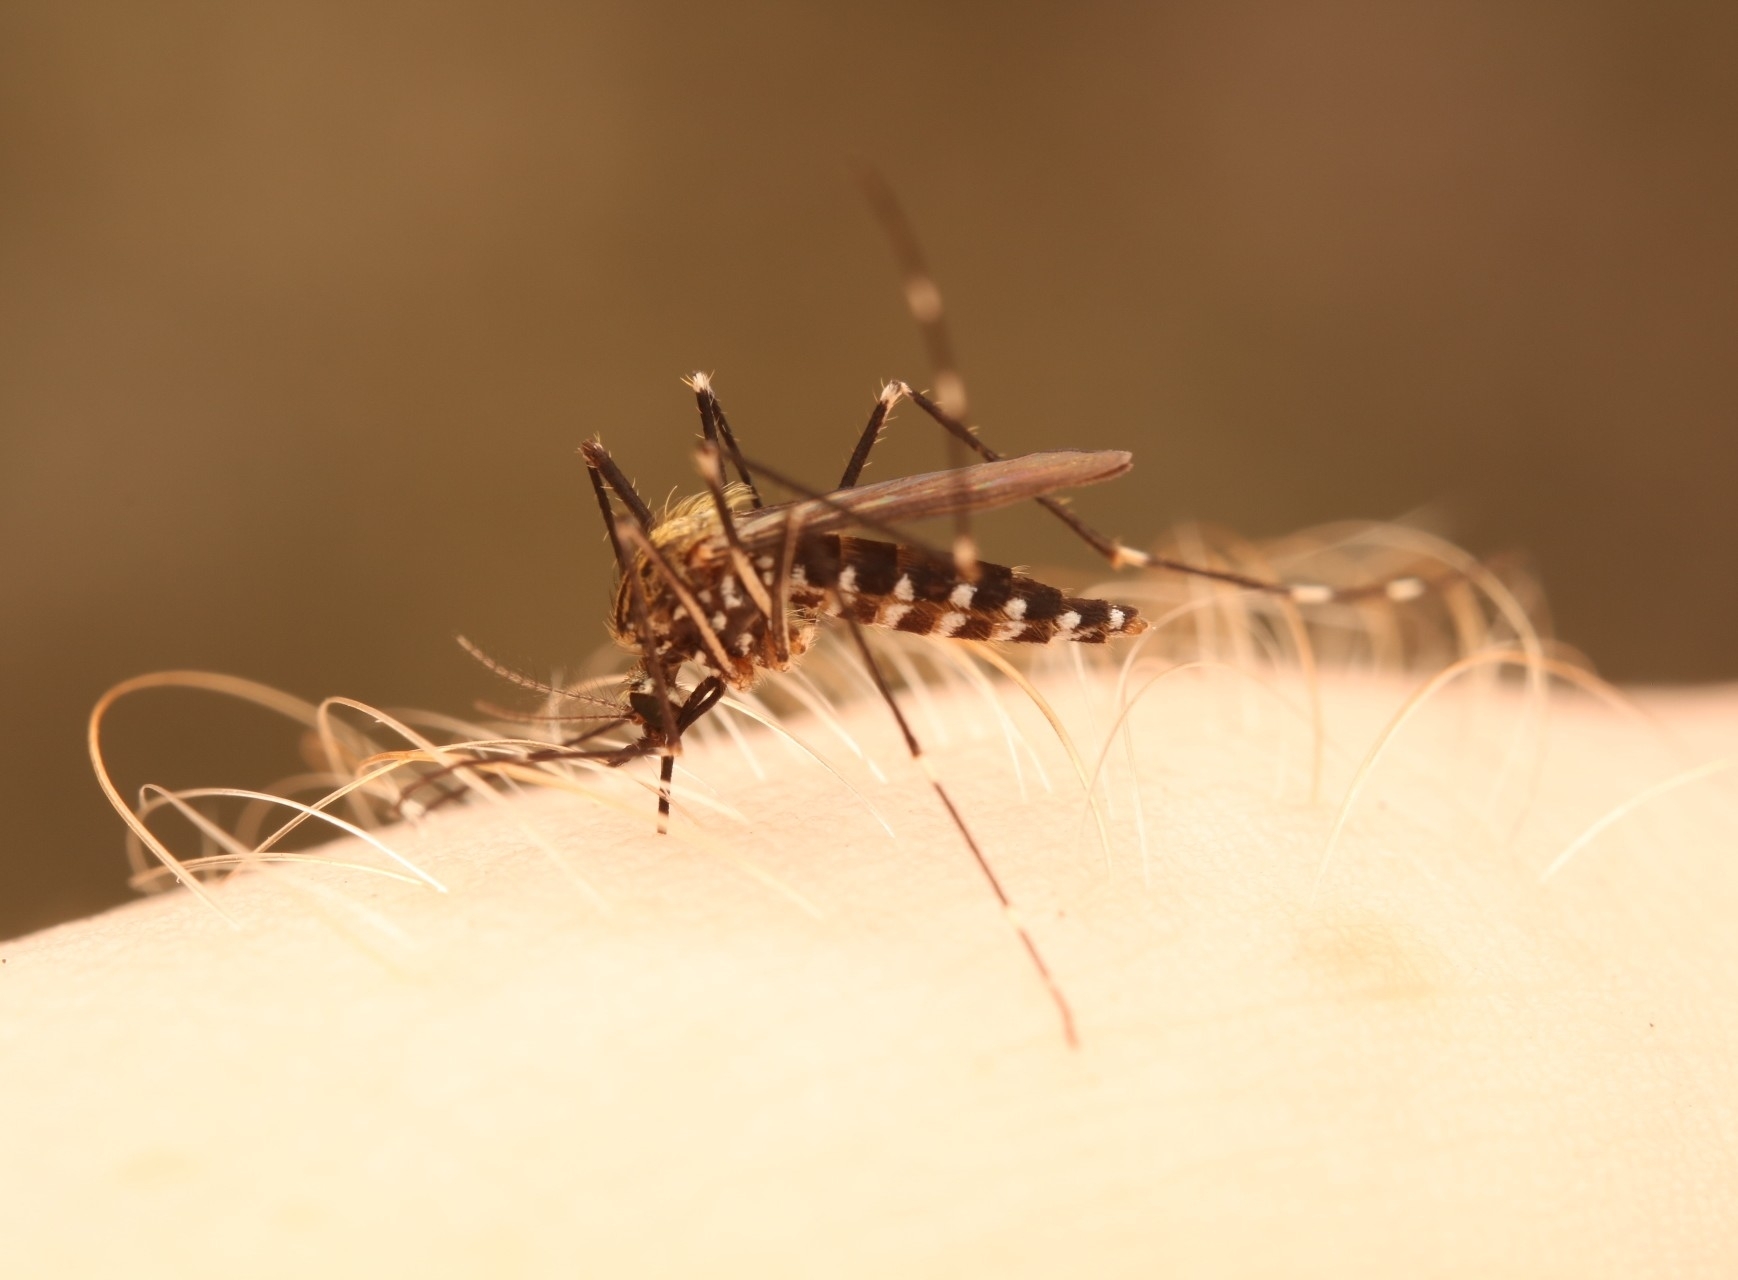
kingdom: Animalia
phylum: Arthropoda
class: Insecta
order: Diptera
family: Culicidae
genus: Aedes
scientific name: Aedes japonicus
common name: Asian bush mosquito
